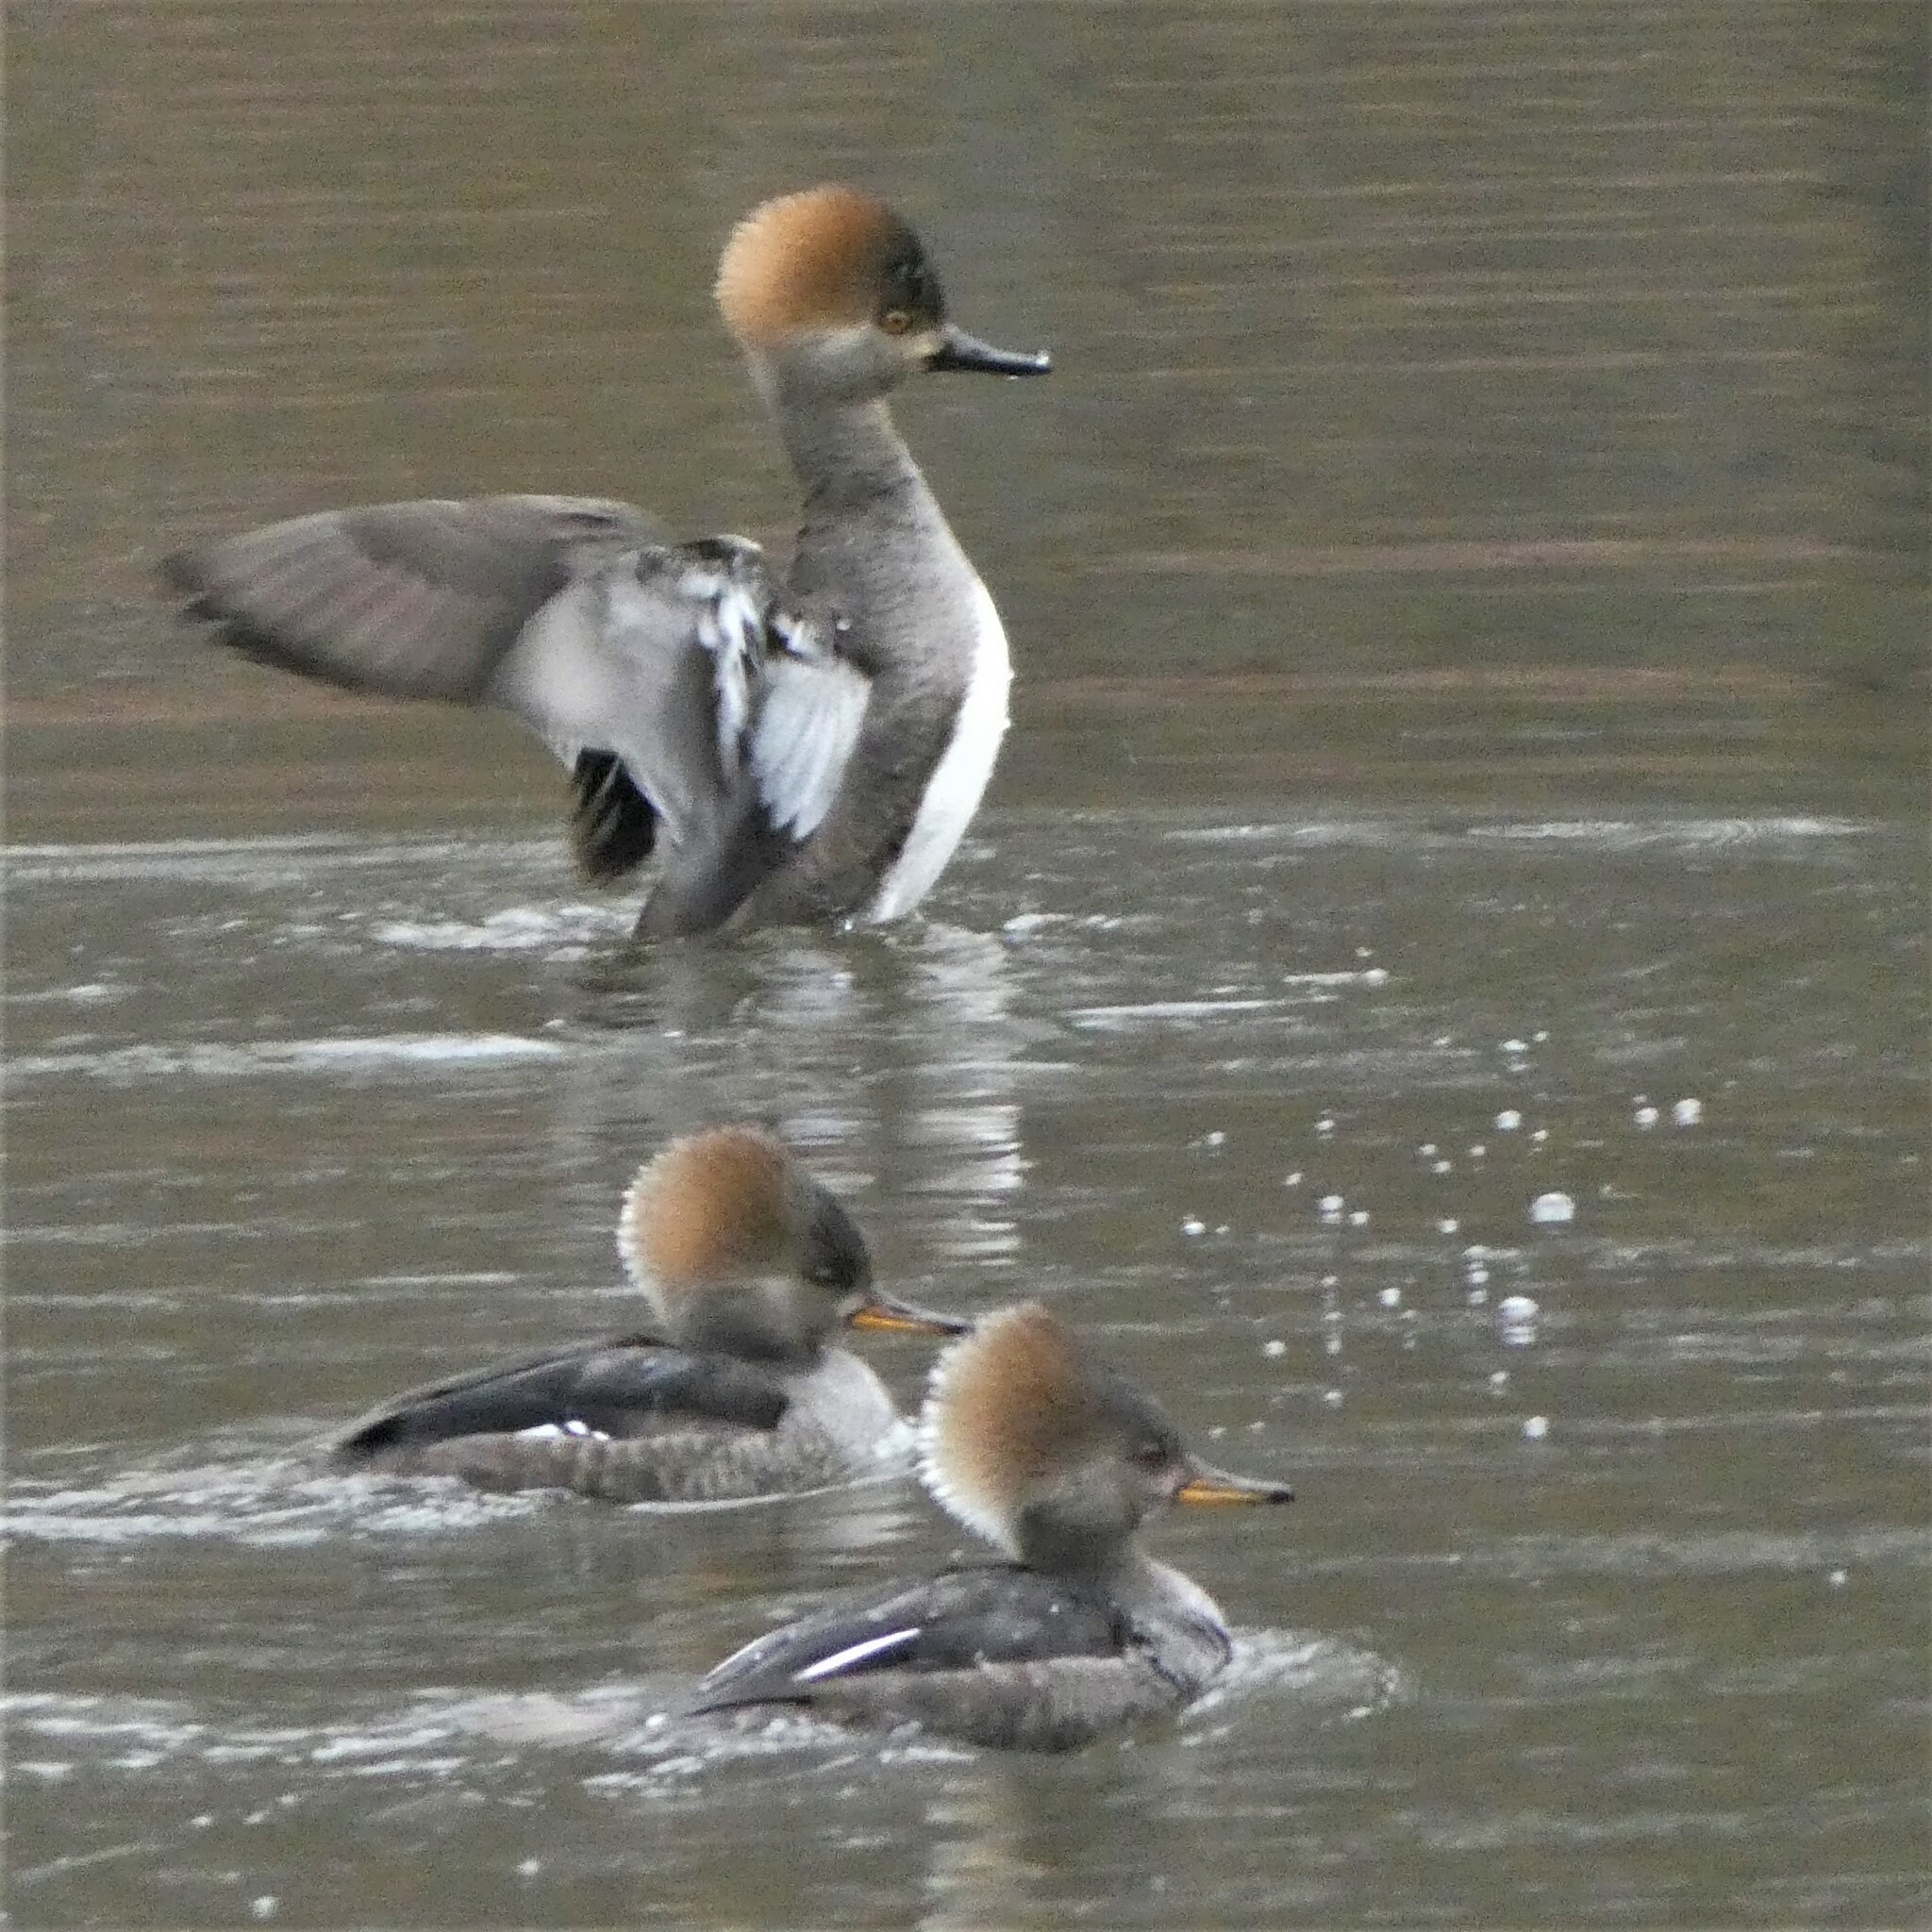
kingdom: Animalia
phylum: Chordata
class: Aves
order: Anseriformes
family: Anatidae
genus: Lophodytes
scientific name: Lophodytes cucullatus
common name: Hooded merganser
